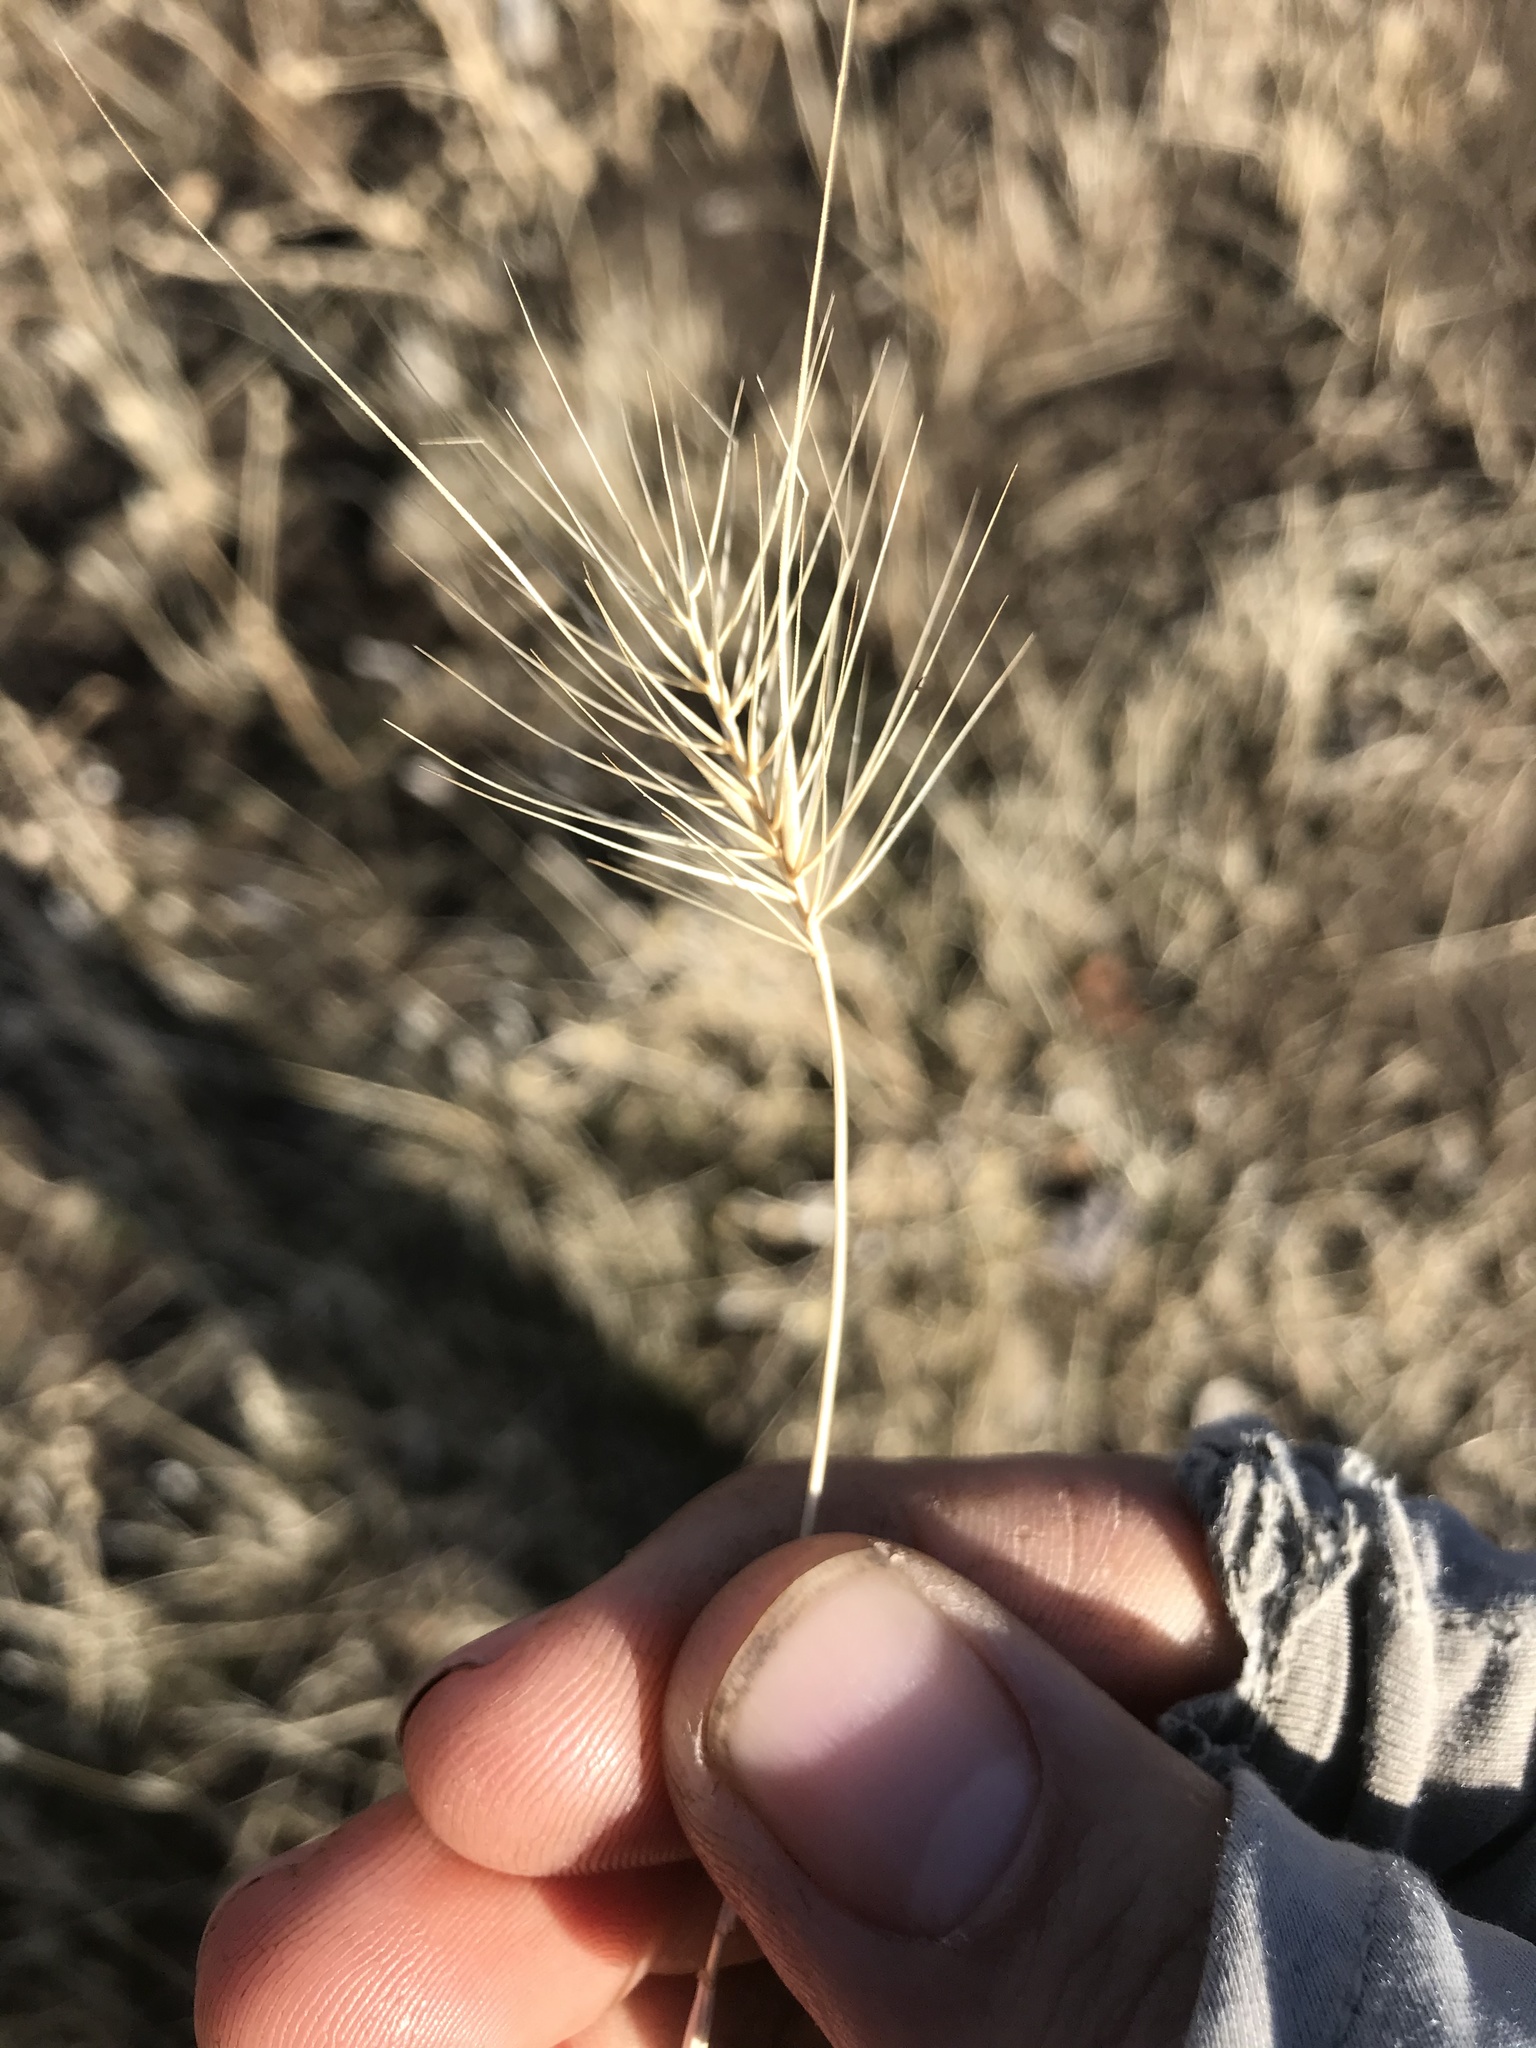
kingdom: Plantae
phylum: Tracheophyta
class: Liliopsida
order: Poales
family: Poaceae
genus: Taeniatherum
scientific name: Taeniatherum caput-medusae
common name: Medusahead
